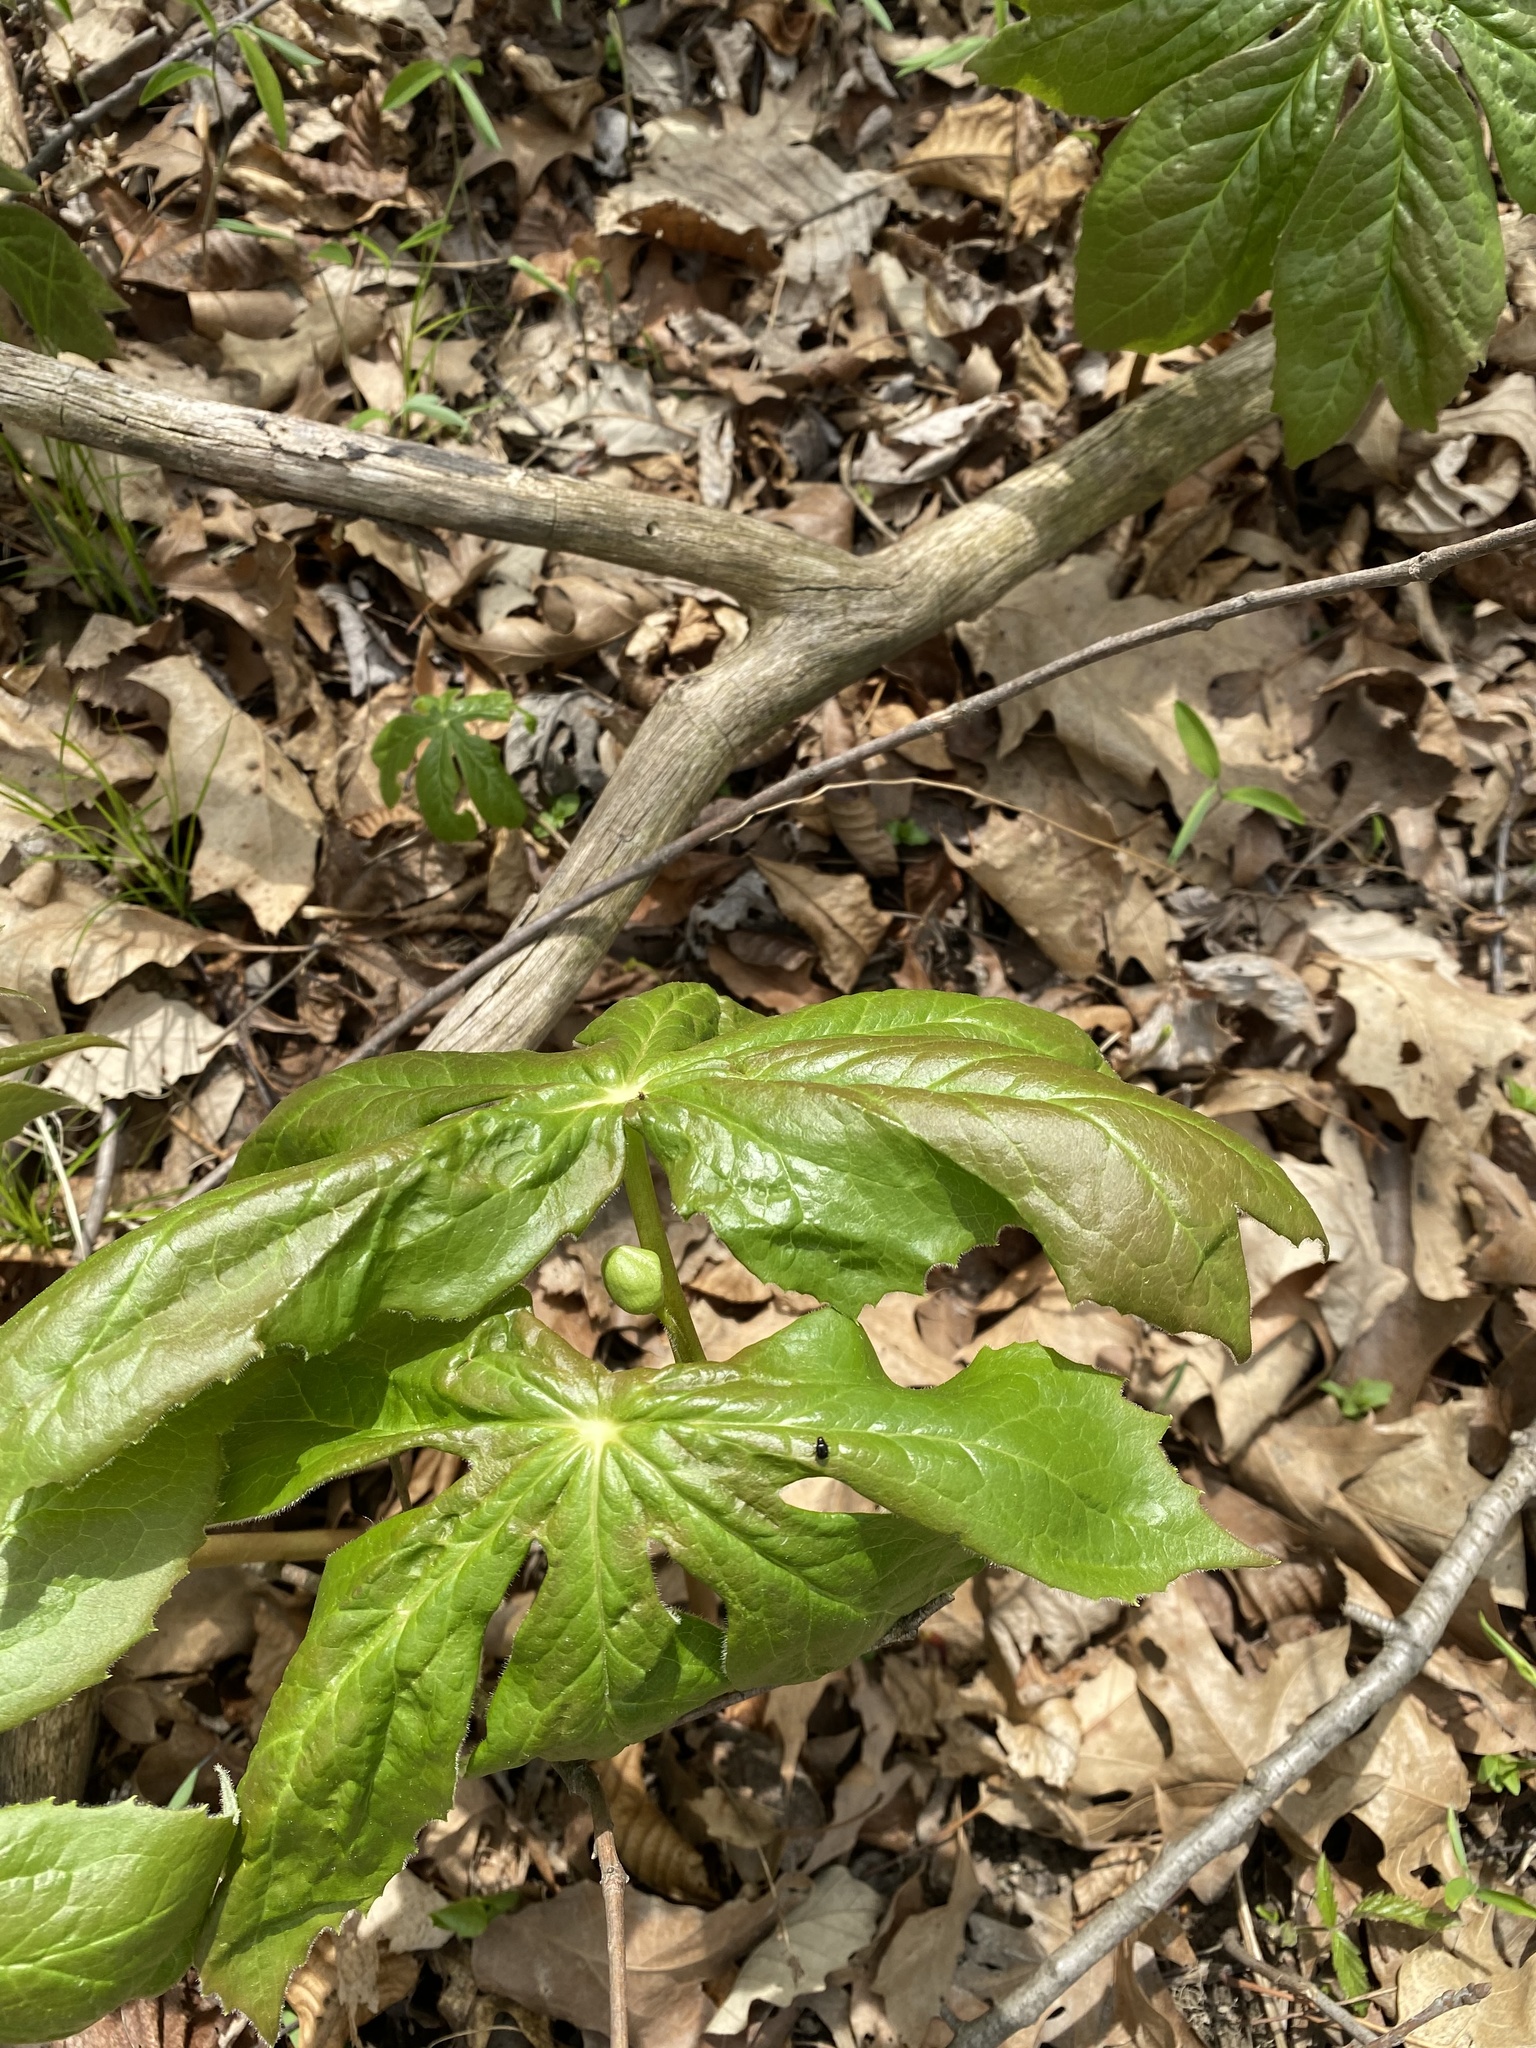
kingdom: Plantae
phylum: Tracheophyta
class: Magnoliopsida
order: Ranunculales
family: Berberidaceae
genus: Podophyllum
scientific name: Podophyllum peltatum
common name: Wild mandrake
